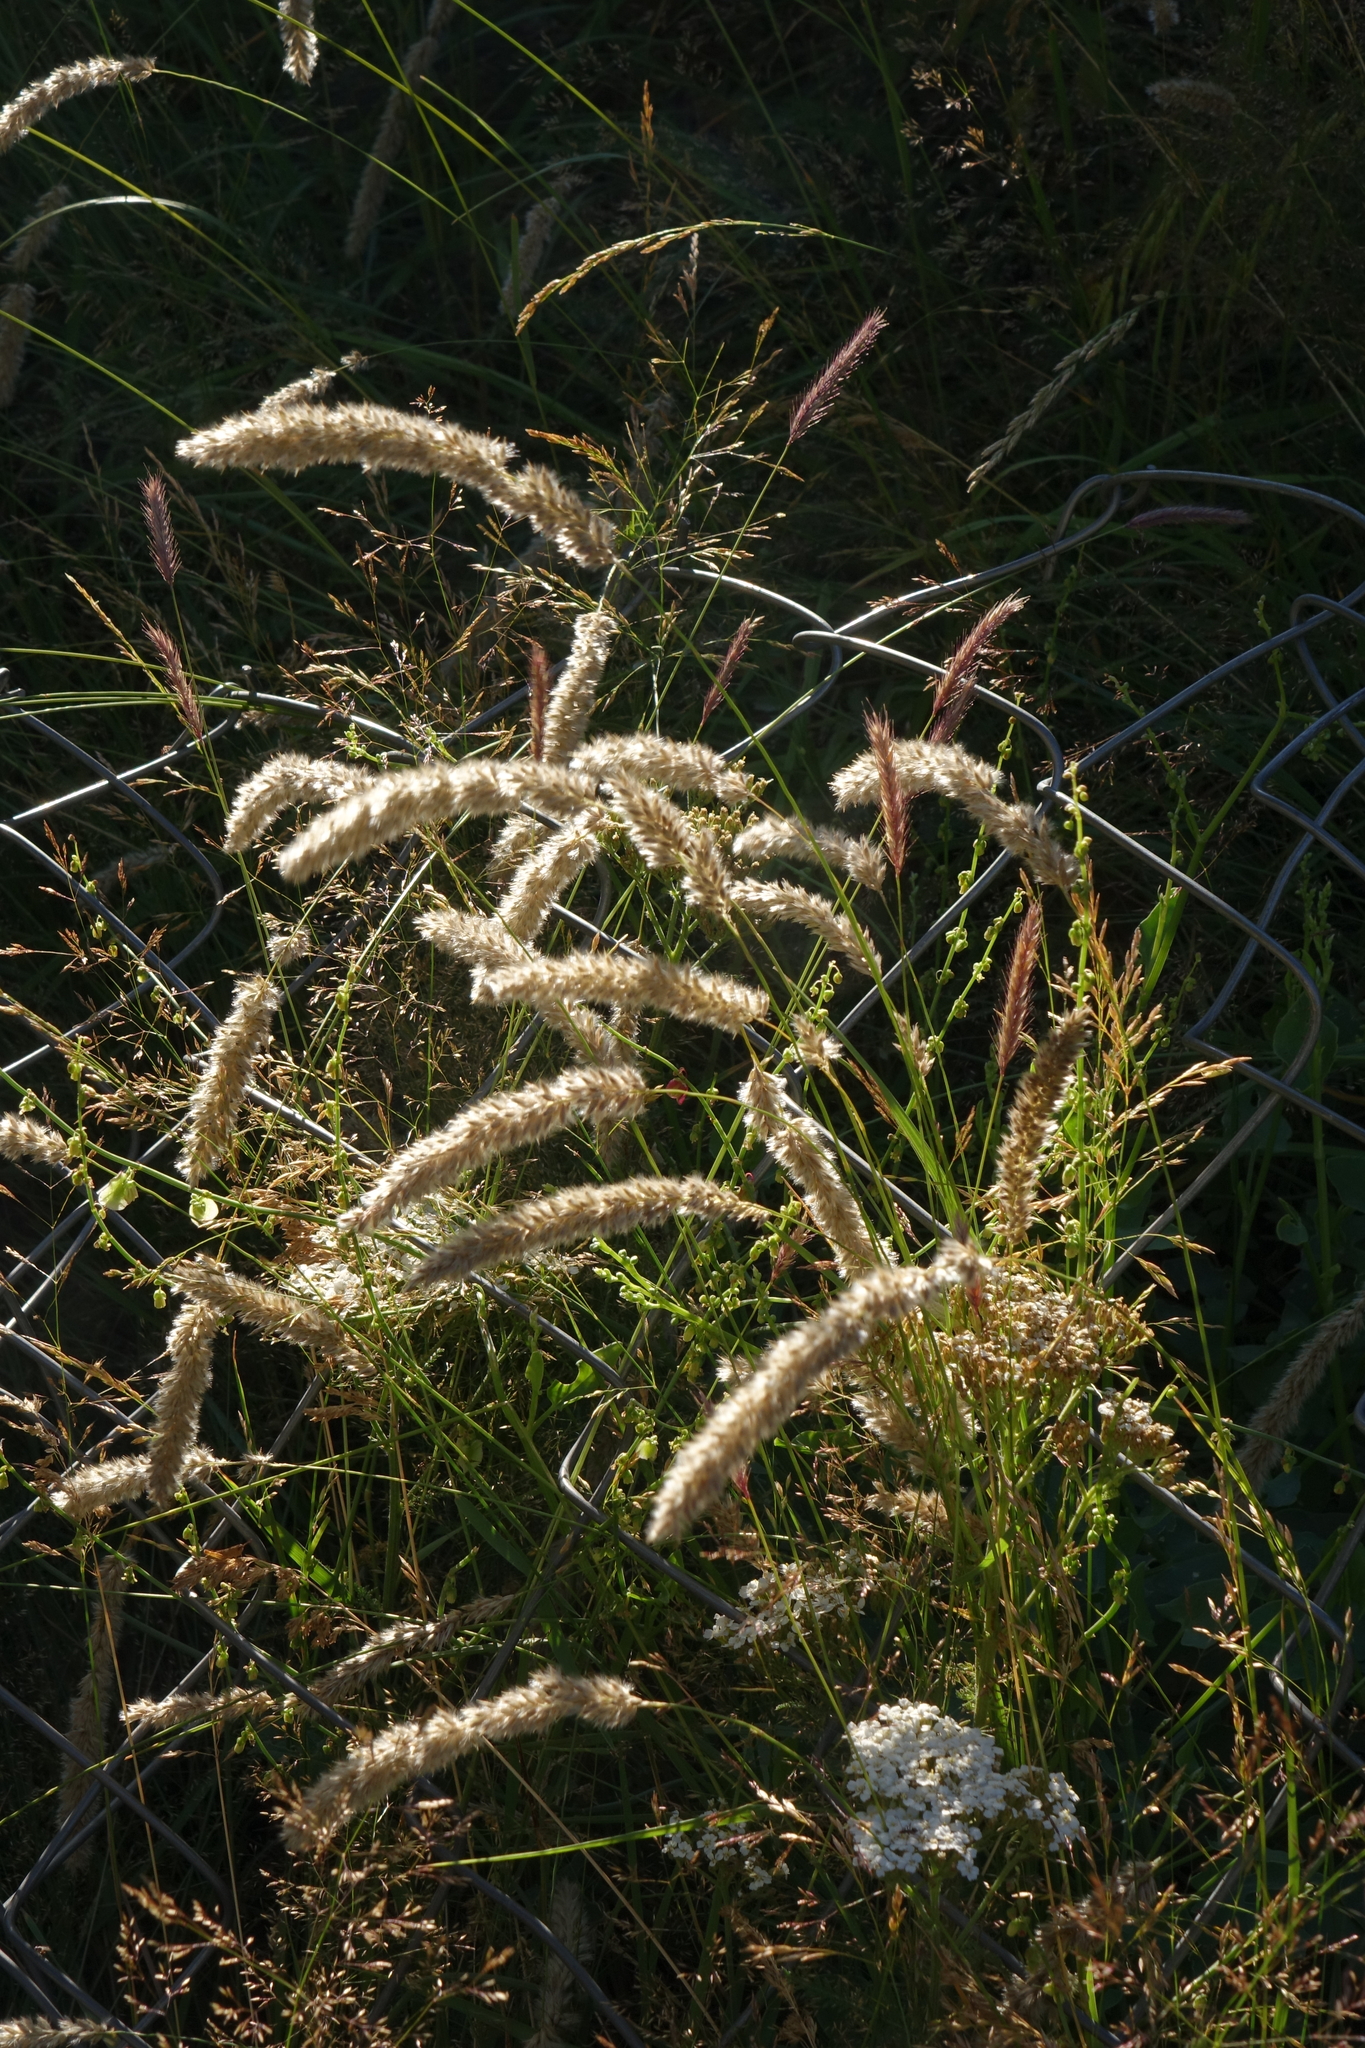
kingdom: Plantae
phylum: Tracheophyta
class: Liliopsida
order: Poales
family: Poaceae
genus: Melica
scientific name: Melica transsilvanica
